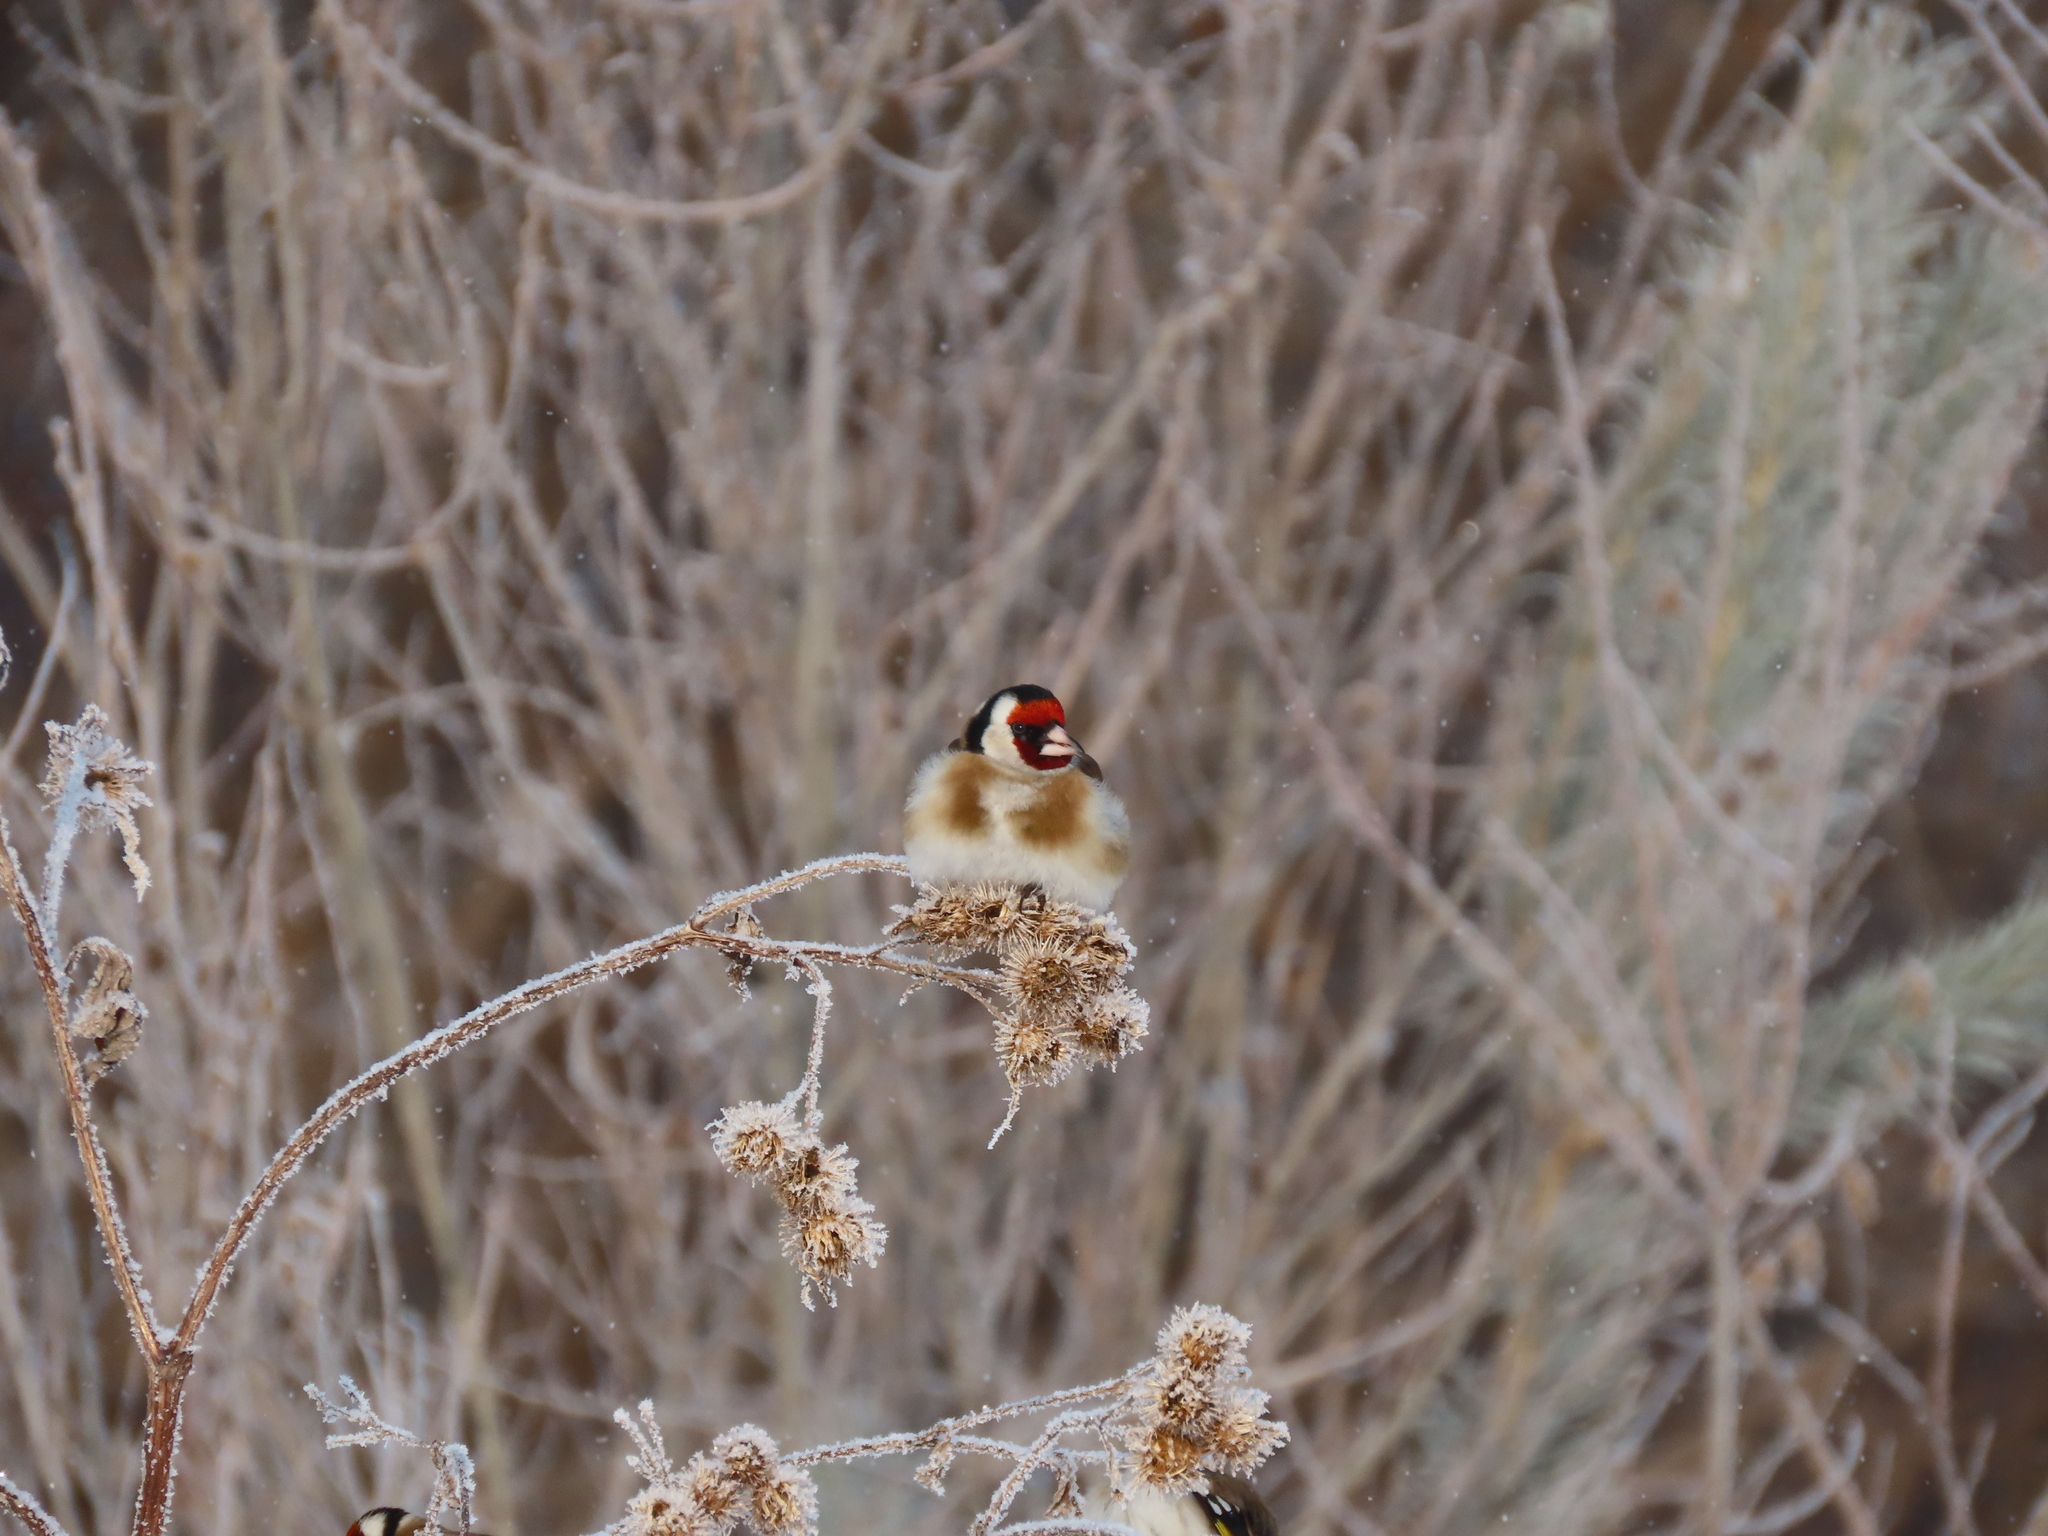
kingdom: Animalia
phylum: Chordata
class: Aves
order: Passeriformes
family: Fringillidae
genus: Carduelis
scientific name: Carduelis carduelis
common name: European goldfinch
